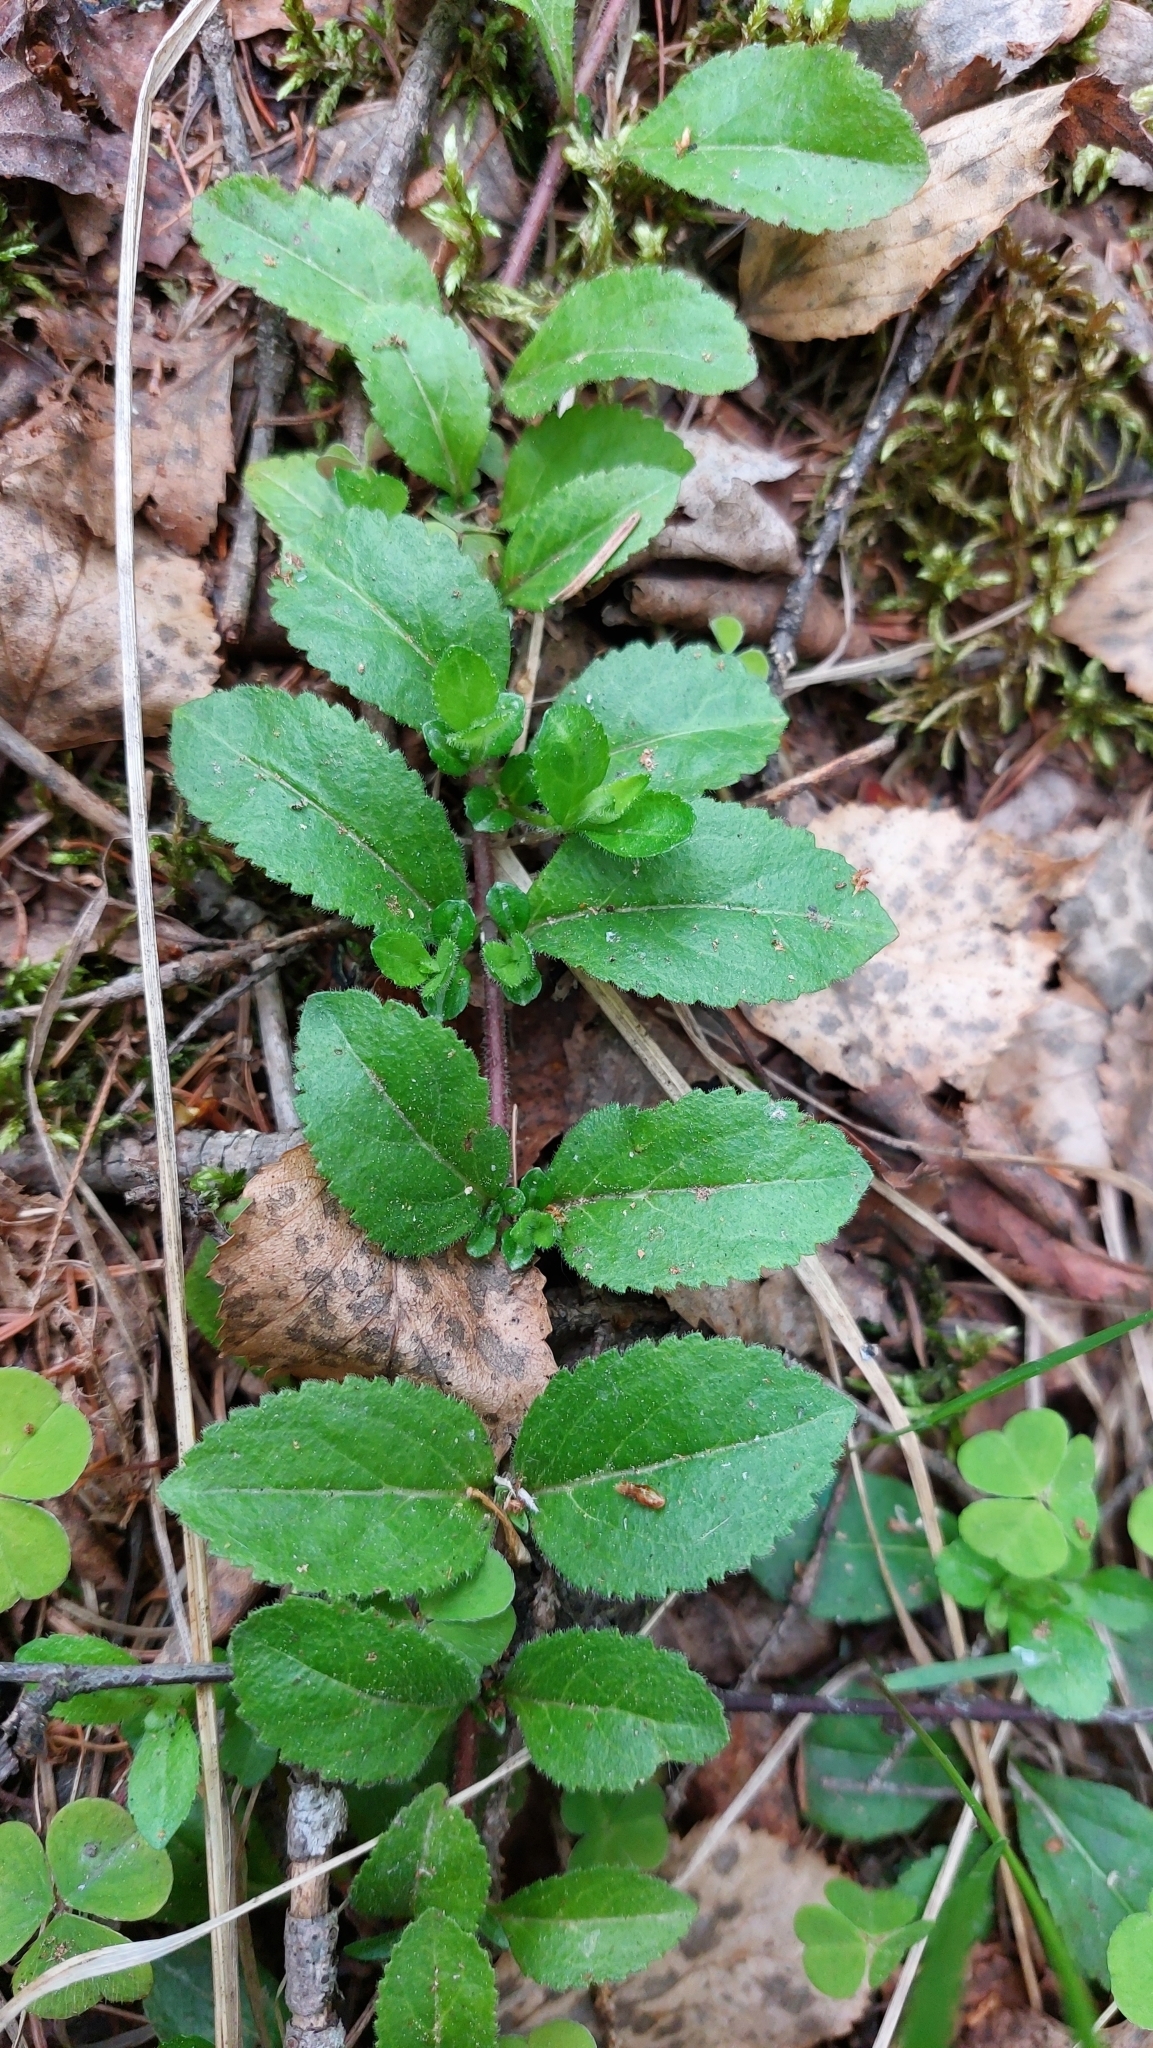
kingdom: Plantae
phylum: Tracheophyta
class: Magnoliopsida
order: Lamiales
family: Plantaginaceae
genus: Veronica
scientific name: Veronica officinalis
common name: Common speedwell
